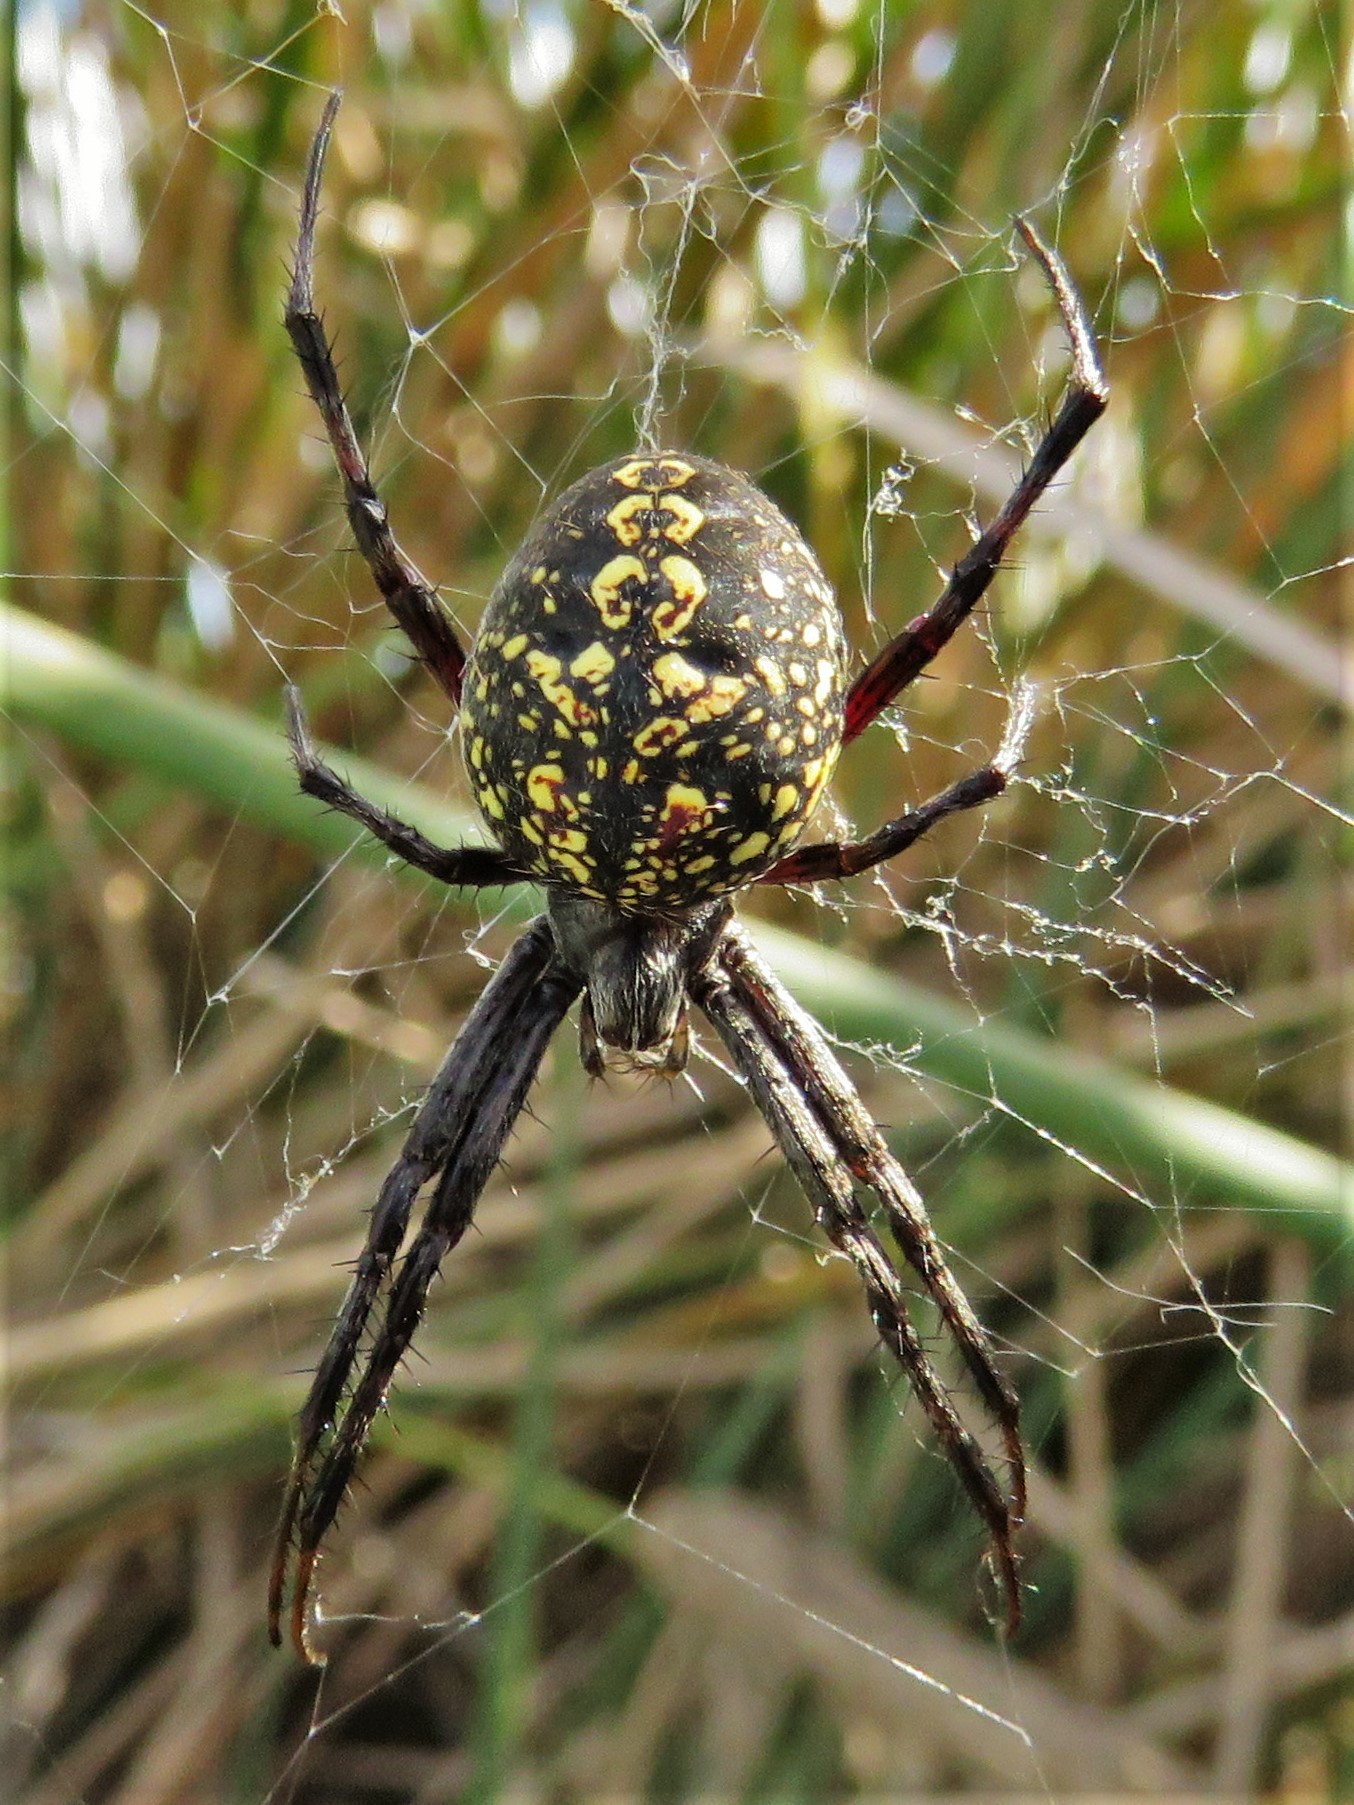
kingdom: Animalia
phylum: Arthropoda
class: Arachnida
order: Araneae
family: Araneidae
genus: Neoscona
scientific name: Neoscona oaxacensis
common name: Orb weavers
